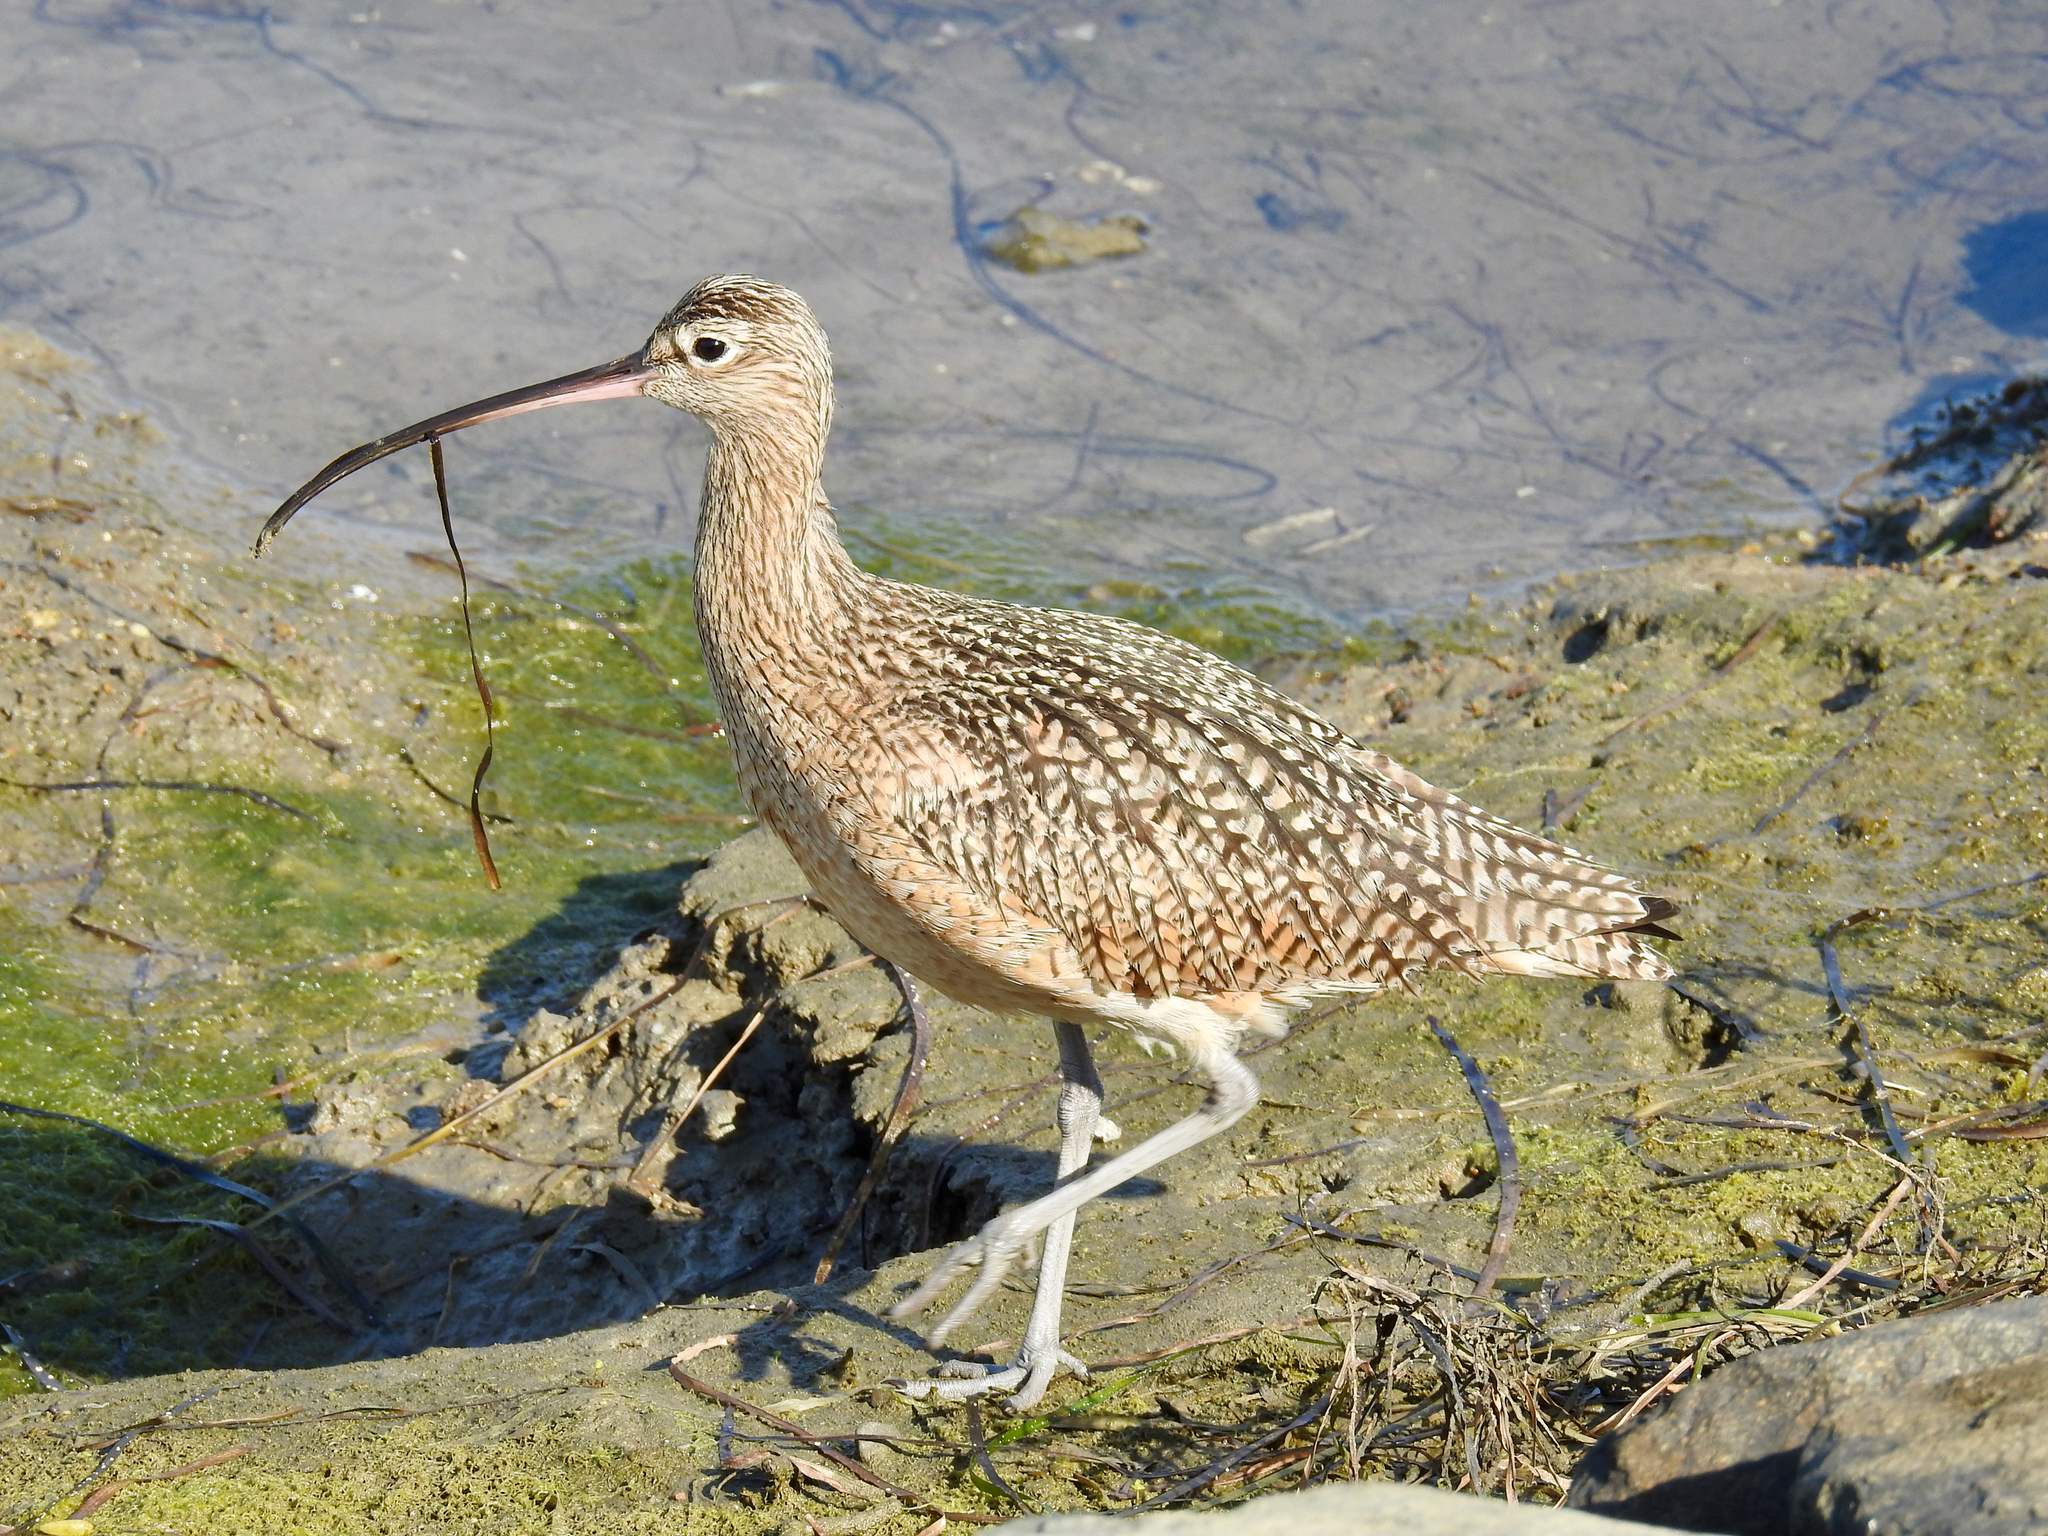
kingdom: Animalia
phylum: Chordata
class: Aves
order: Charadriiformes
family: Scolopacidae
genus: Numenius
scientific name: Numenius americanus
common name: Long-billed curlew
